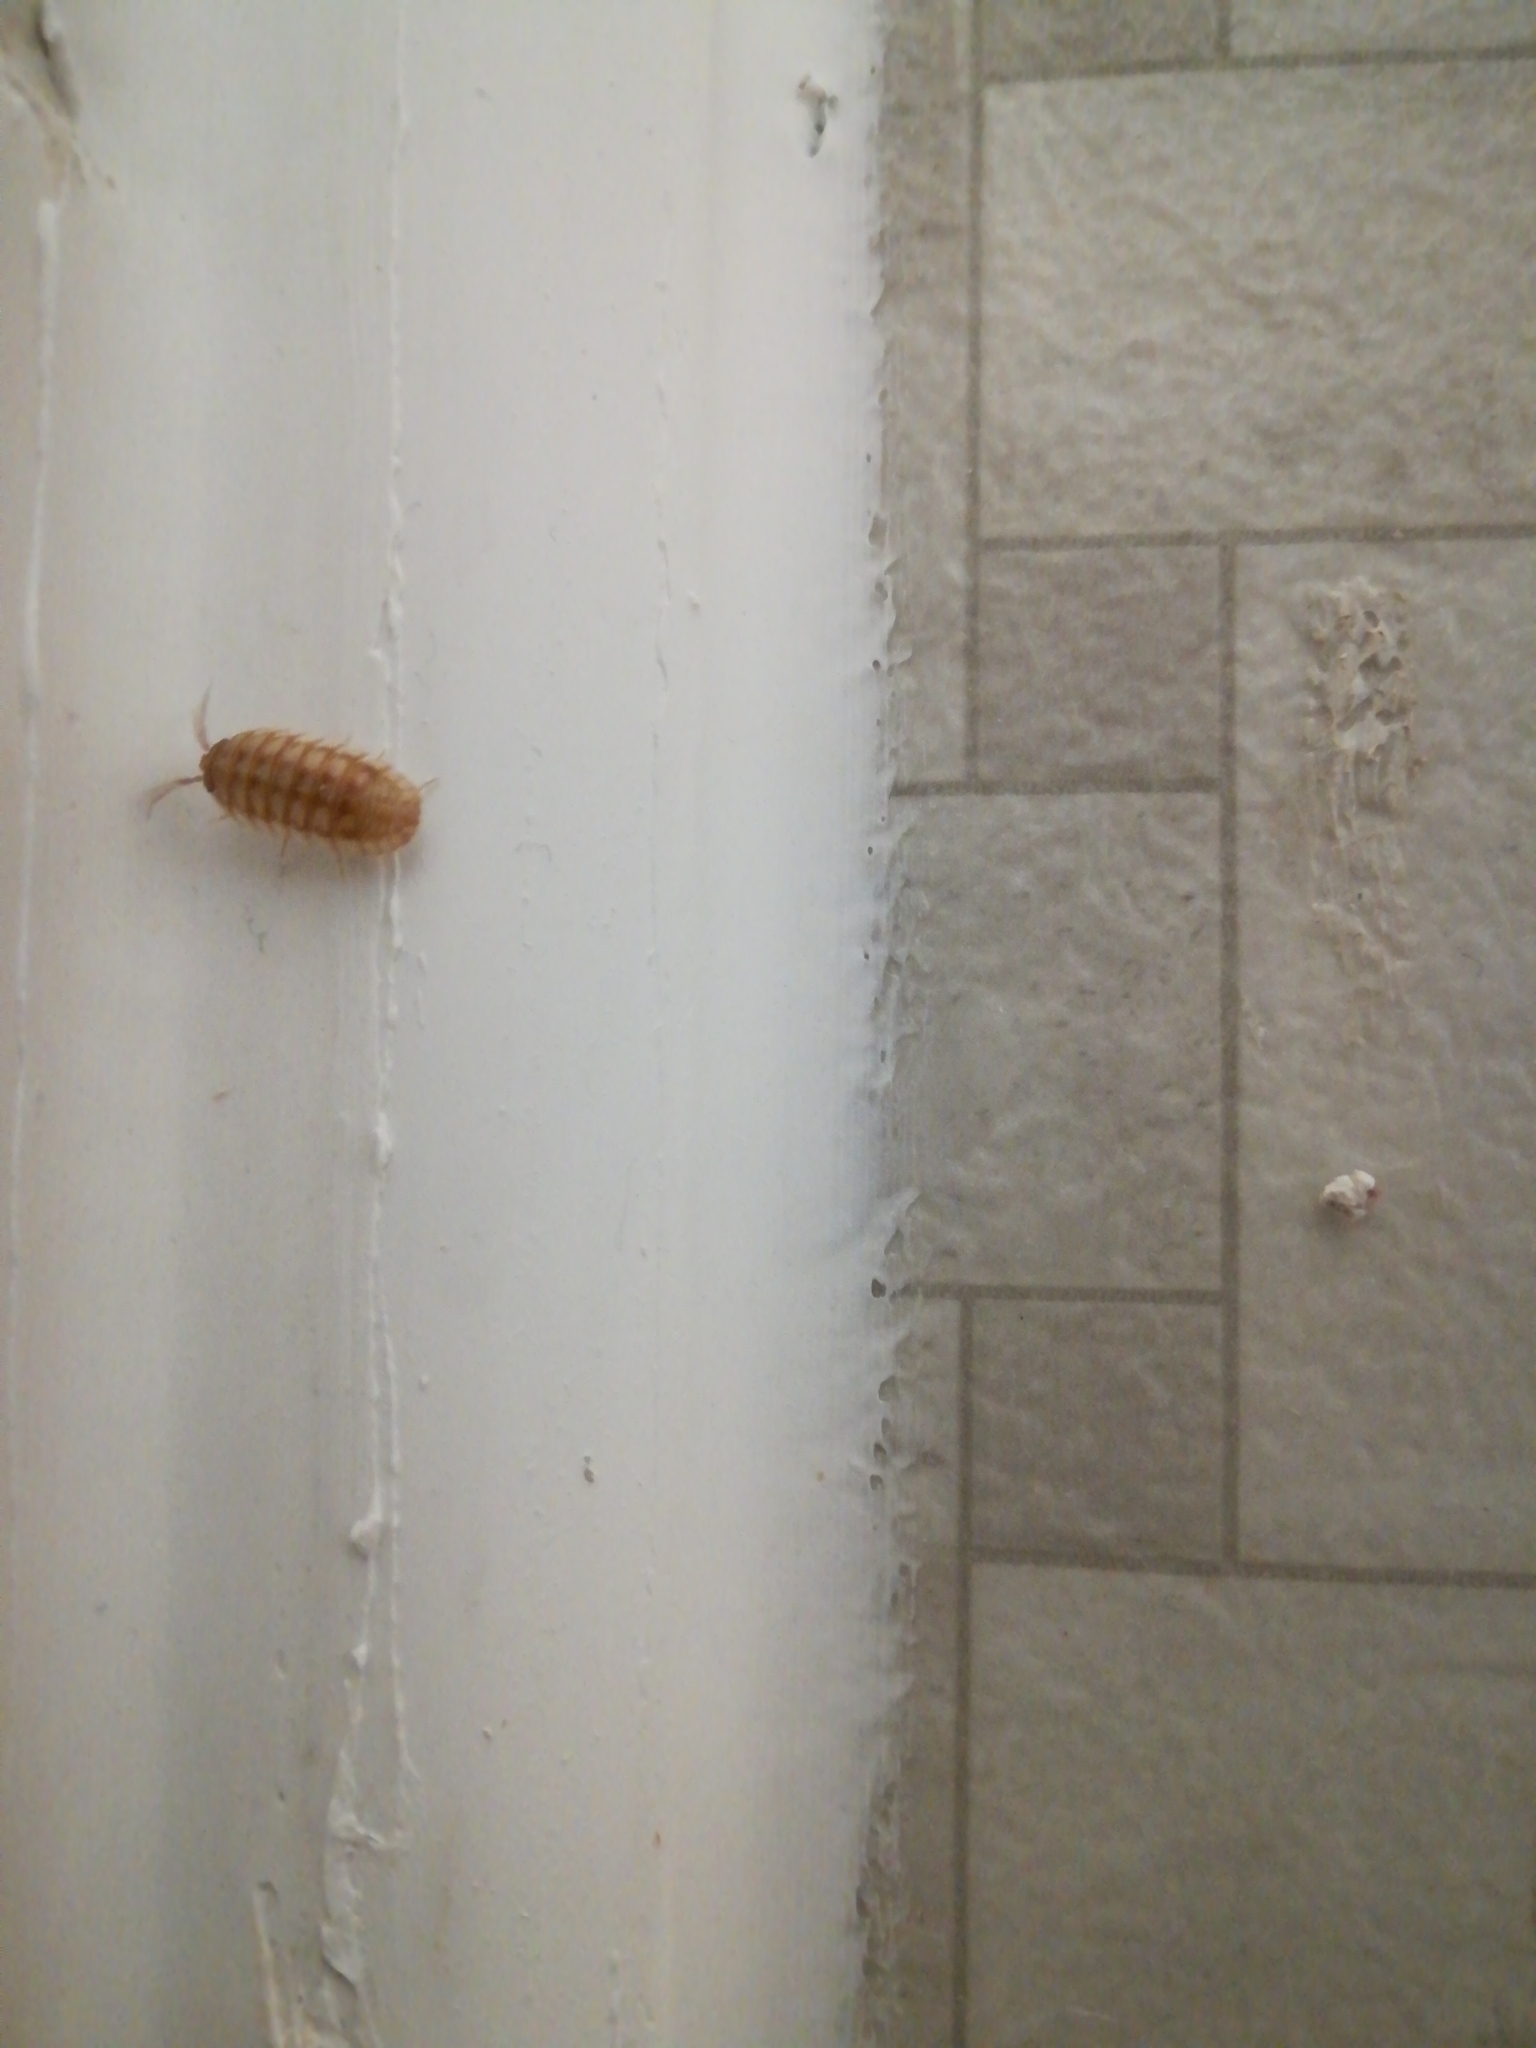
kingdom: Animalia
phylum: Arthropoda
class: Malacostraca
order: Isopoda
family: Armadillidiidae
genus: Armadillidium
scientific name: Armadillidium nasatum
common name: Isopod
